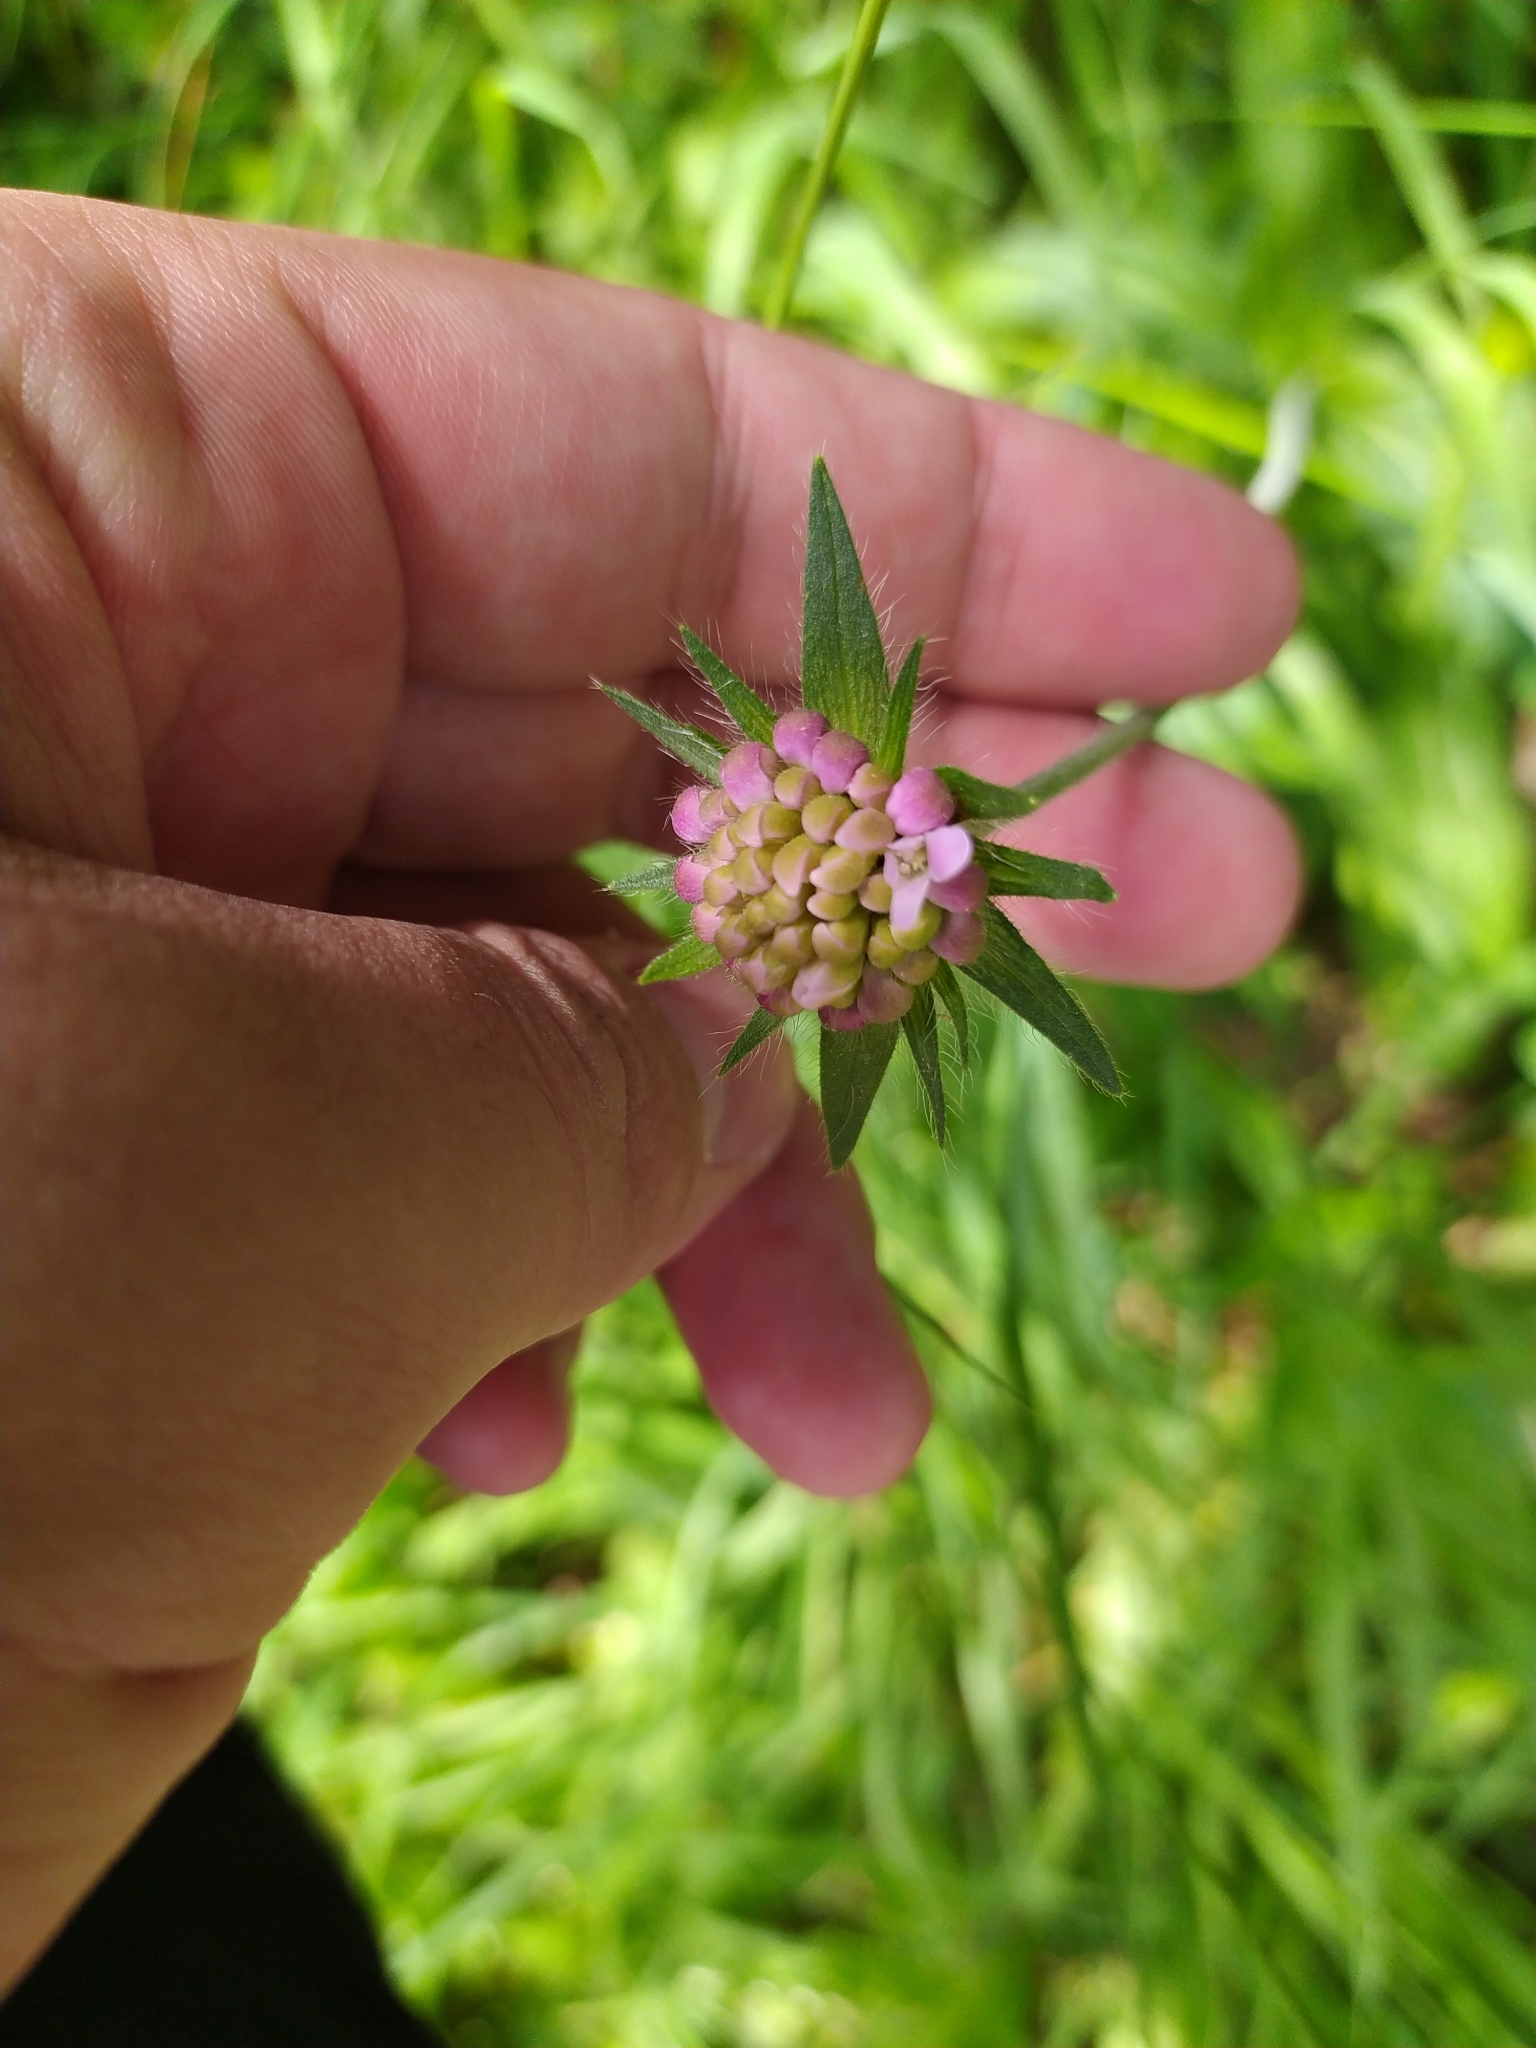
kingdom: Plantae
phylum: Tracheophyta
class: Magnoliopsida
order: Dipsacales
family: Caprifoliaceae
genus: Knautia
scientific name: Knautia arvensis
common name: Field scabiosa
